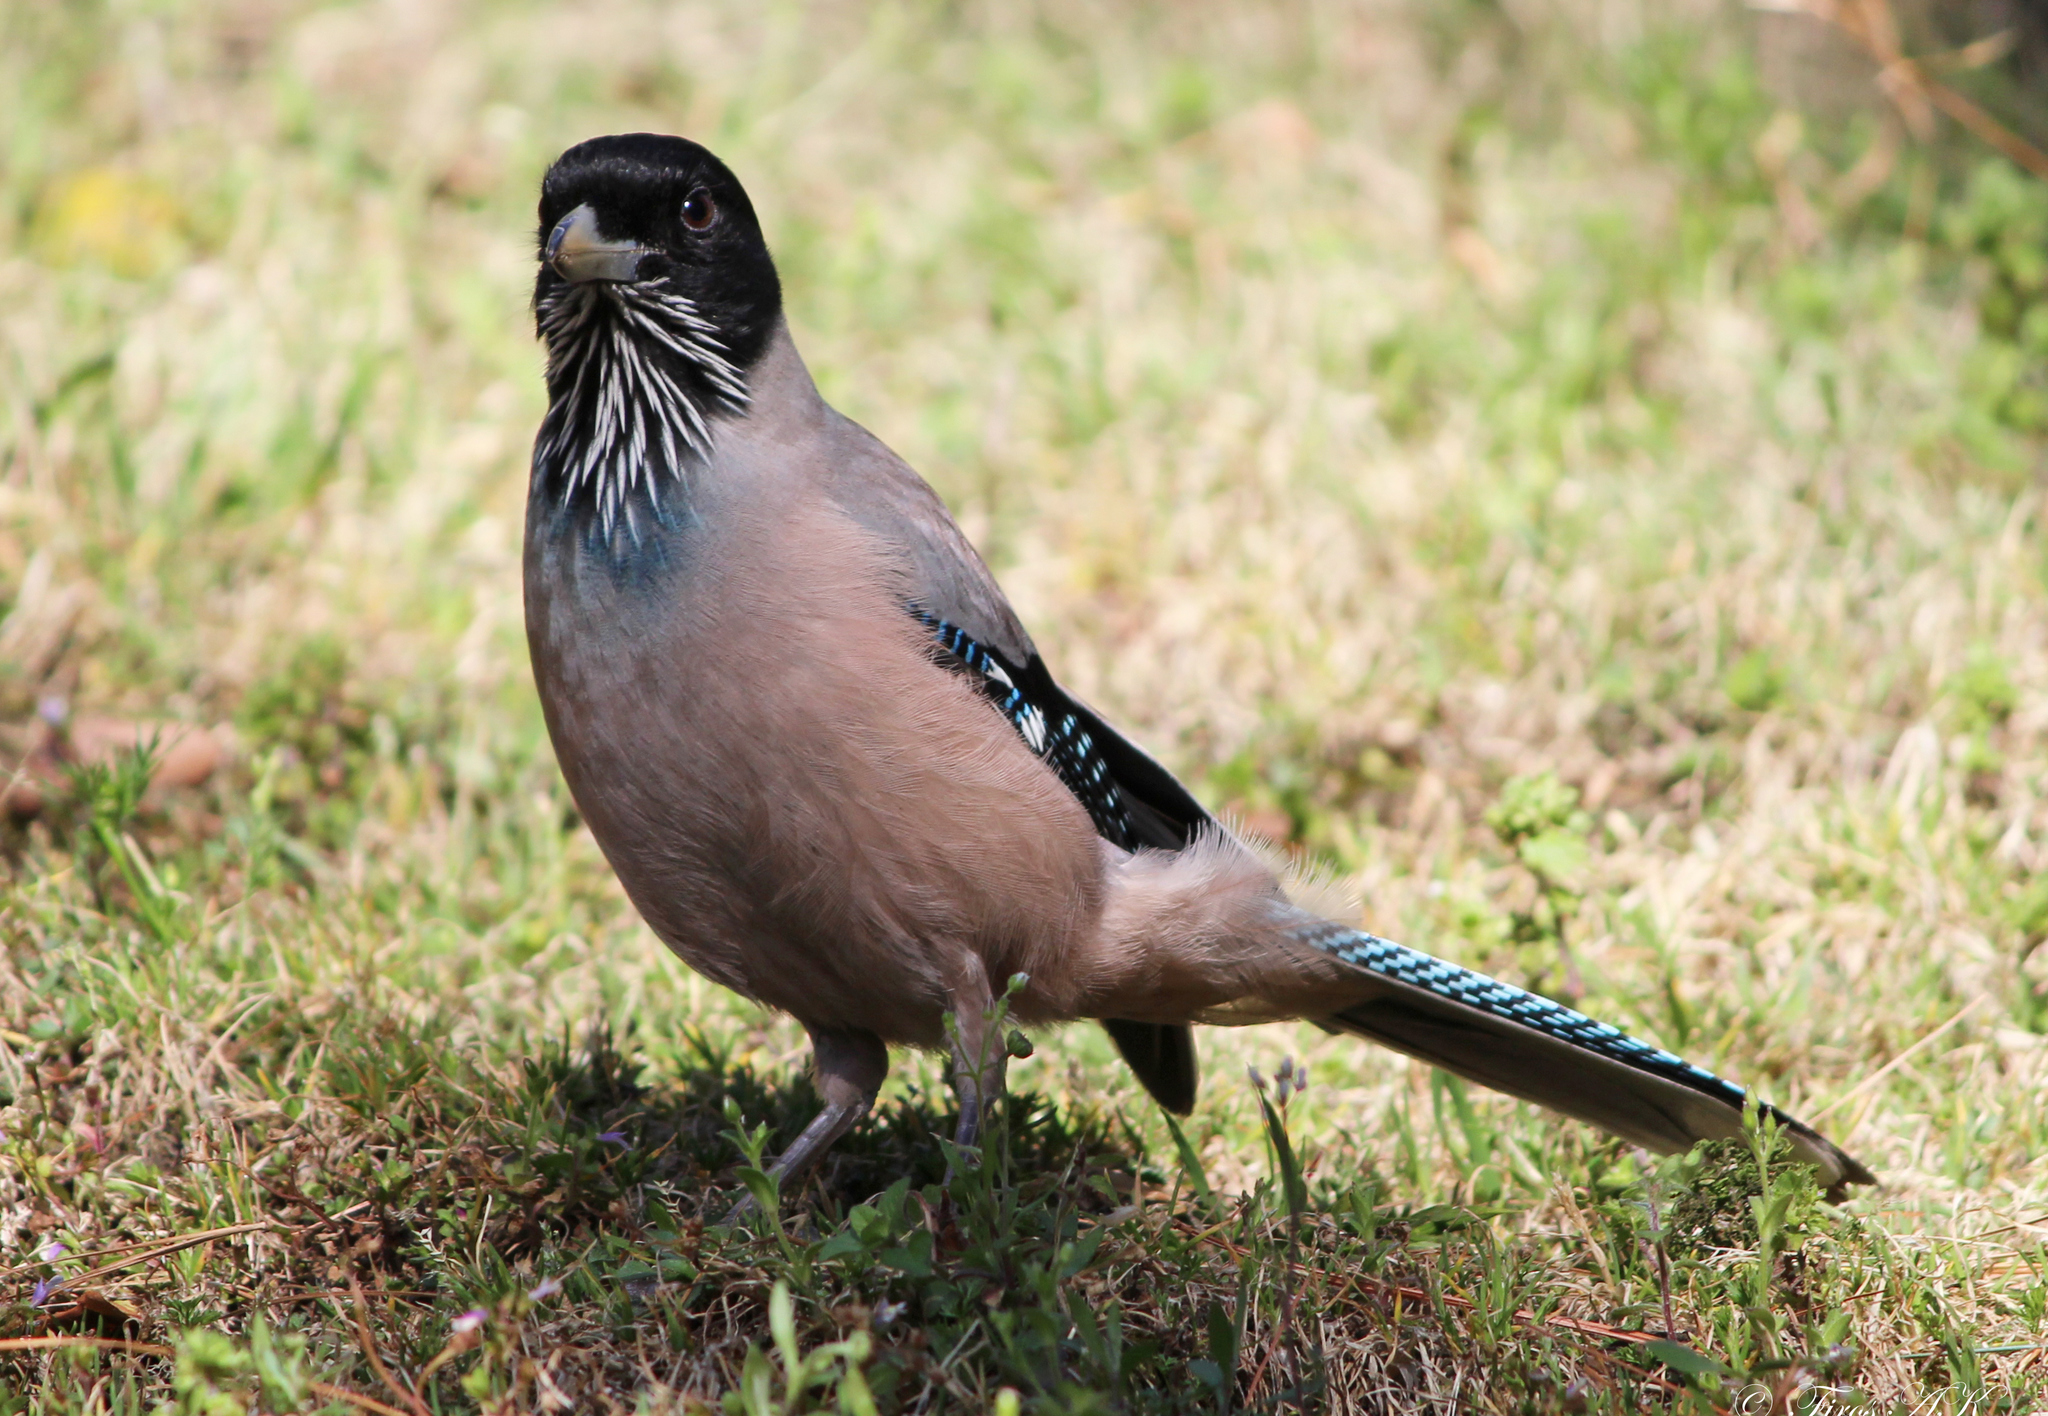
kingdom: Animalia
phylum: Chordata
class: Aves
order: Passeriformes
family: Corvidae
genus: Garrulus
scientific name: Garrulus lanceolatus
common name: Black-headed jay
